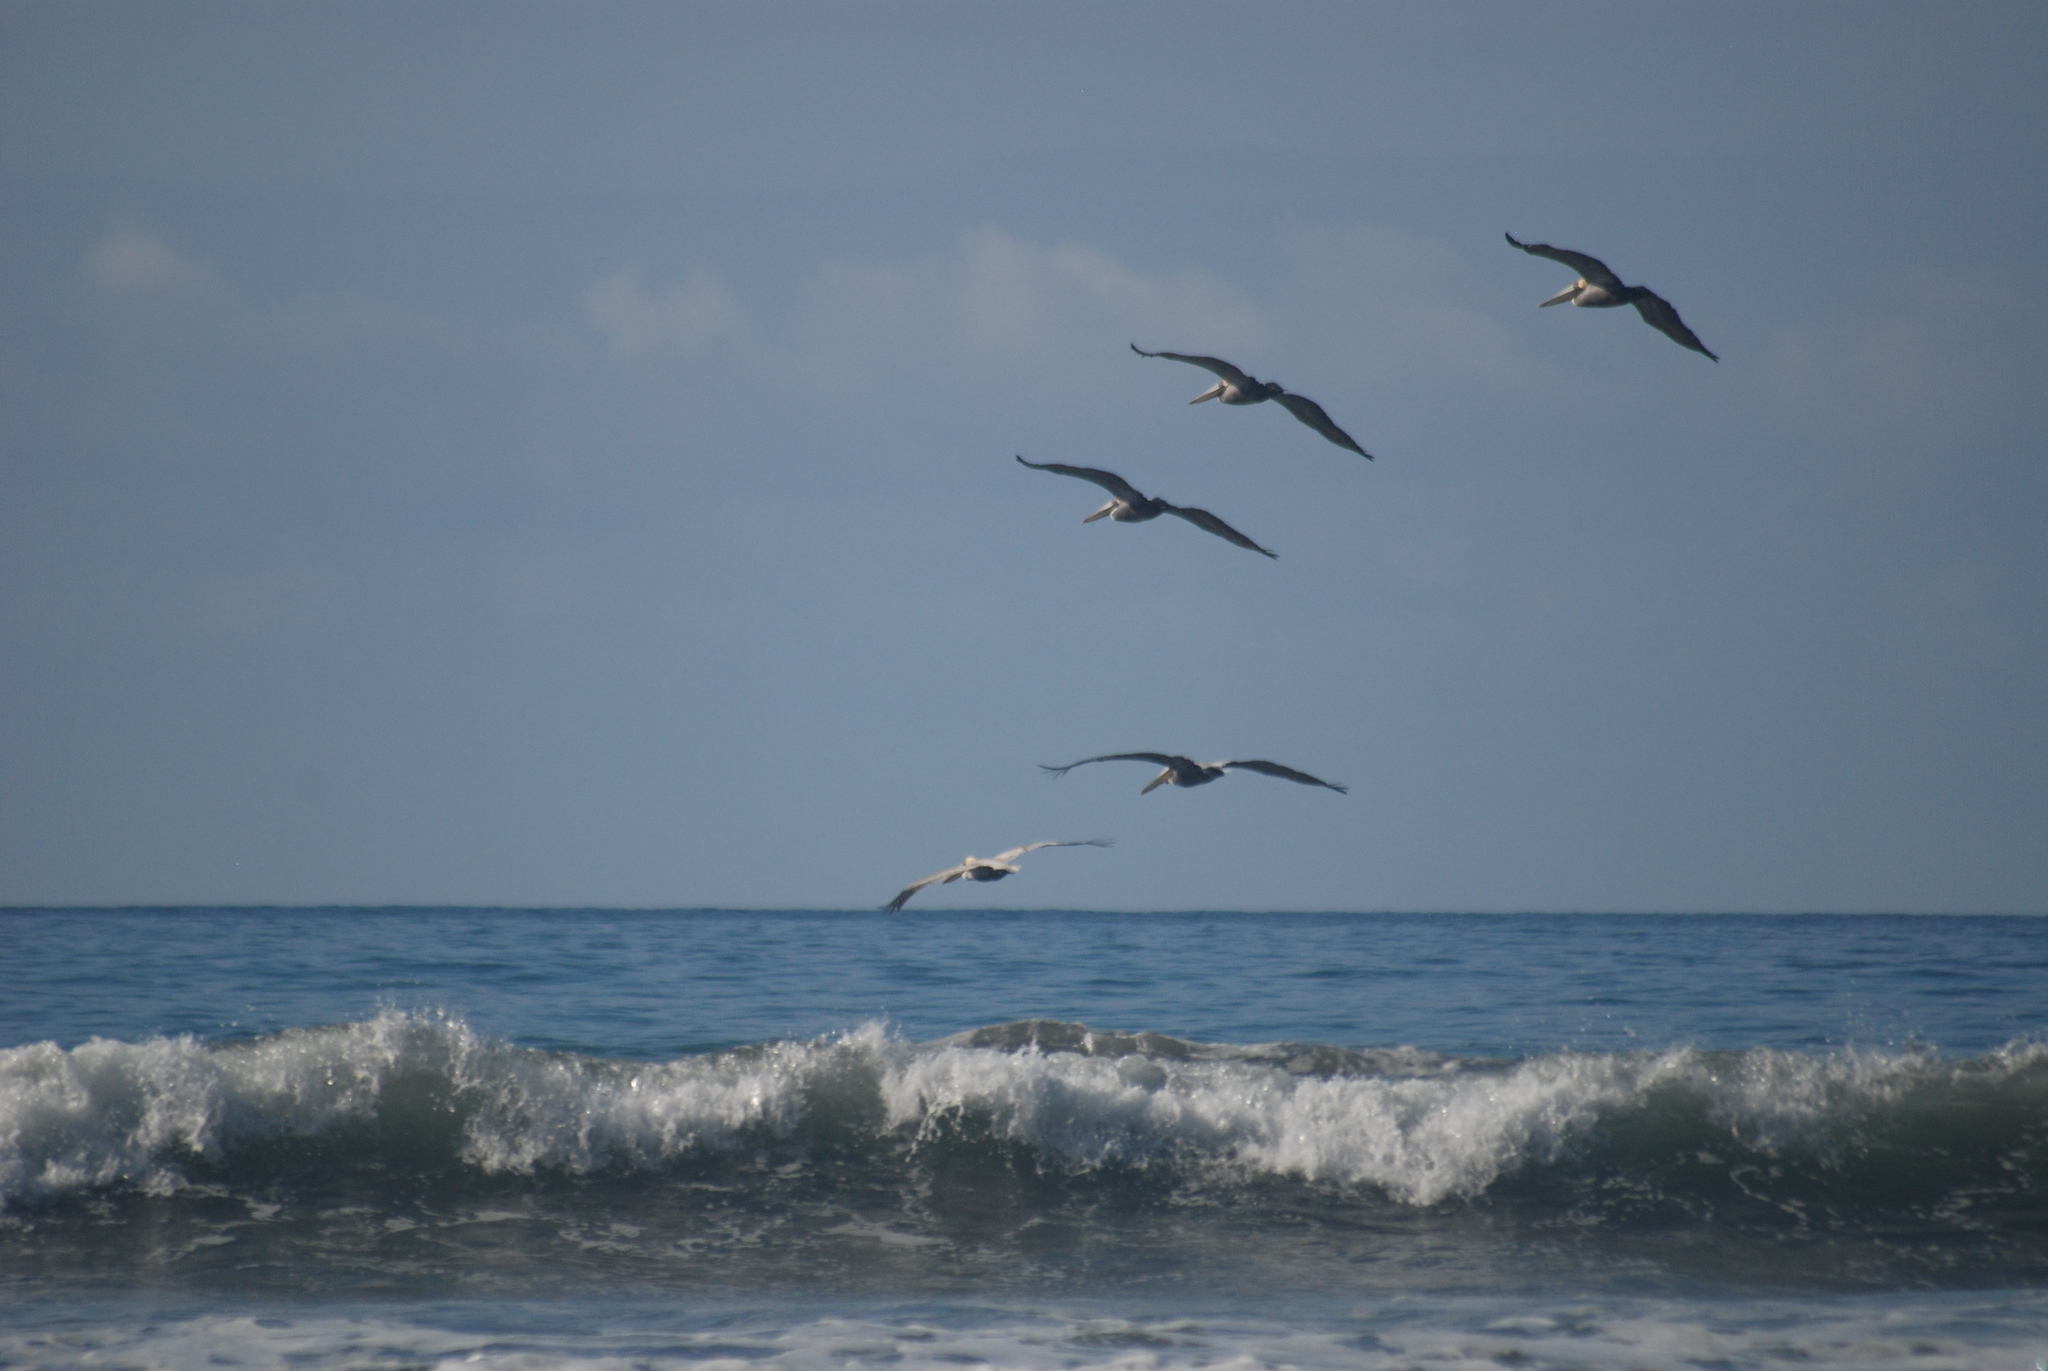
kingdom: Animalia
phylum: Chordata
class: Aves
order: Pelecaniformes
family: Pelecanidae
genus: Pelecanus
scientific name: Pelecanus occidentalis
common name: Brown pelican
